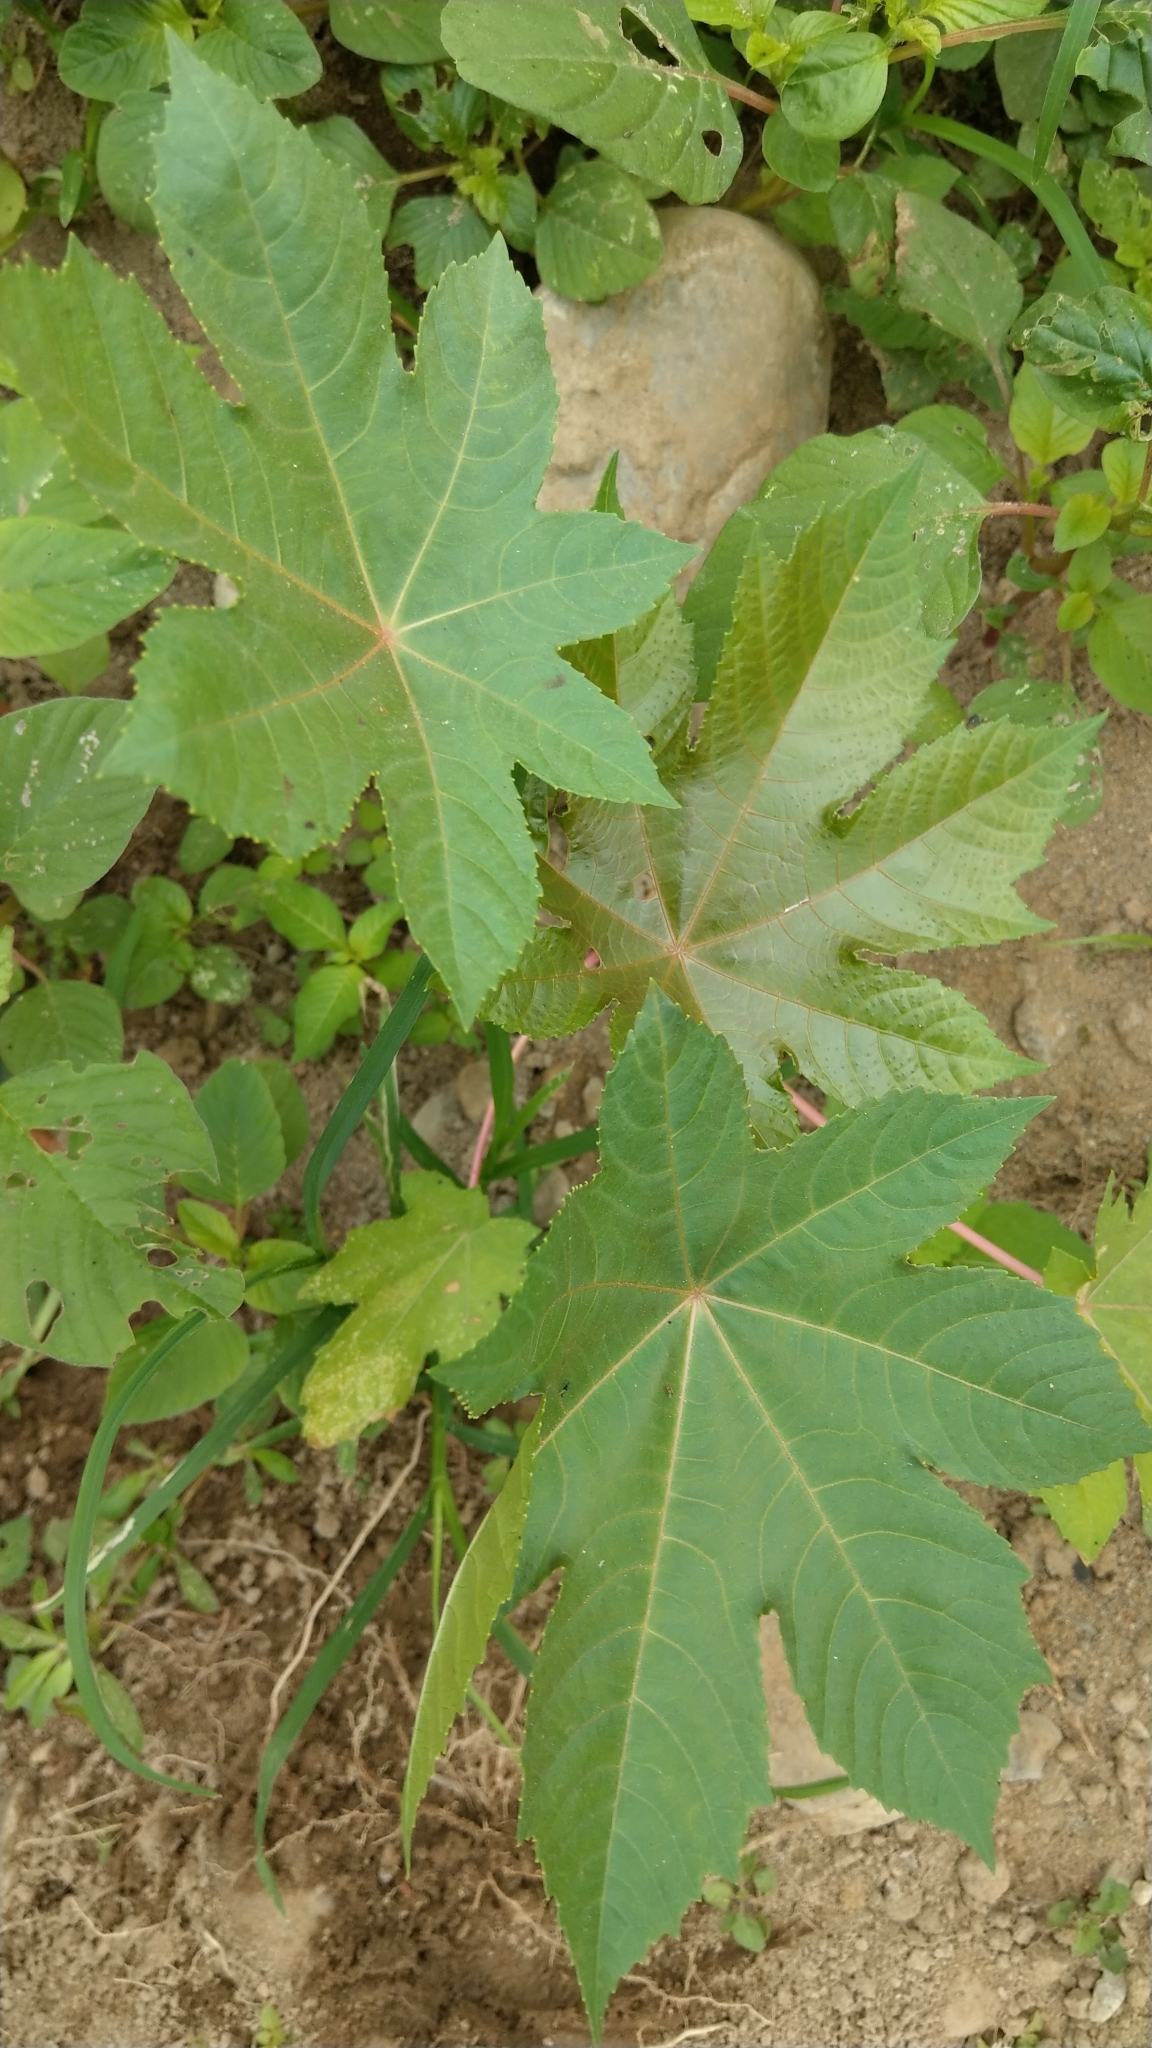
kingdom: Plantae
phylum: Tracheophyta
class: Magnoliopsida
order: Malpighiales
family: Euphorbiaceae
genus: Ricinus
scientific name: Ricinus communis
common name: Castor-oil-plant
